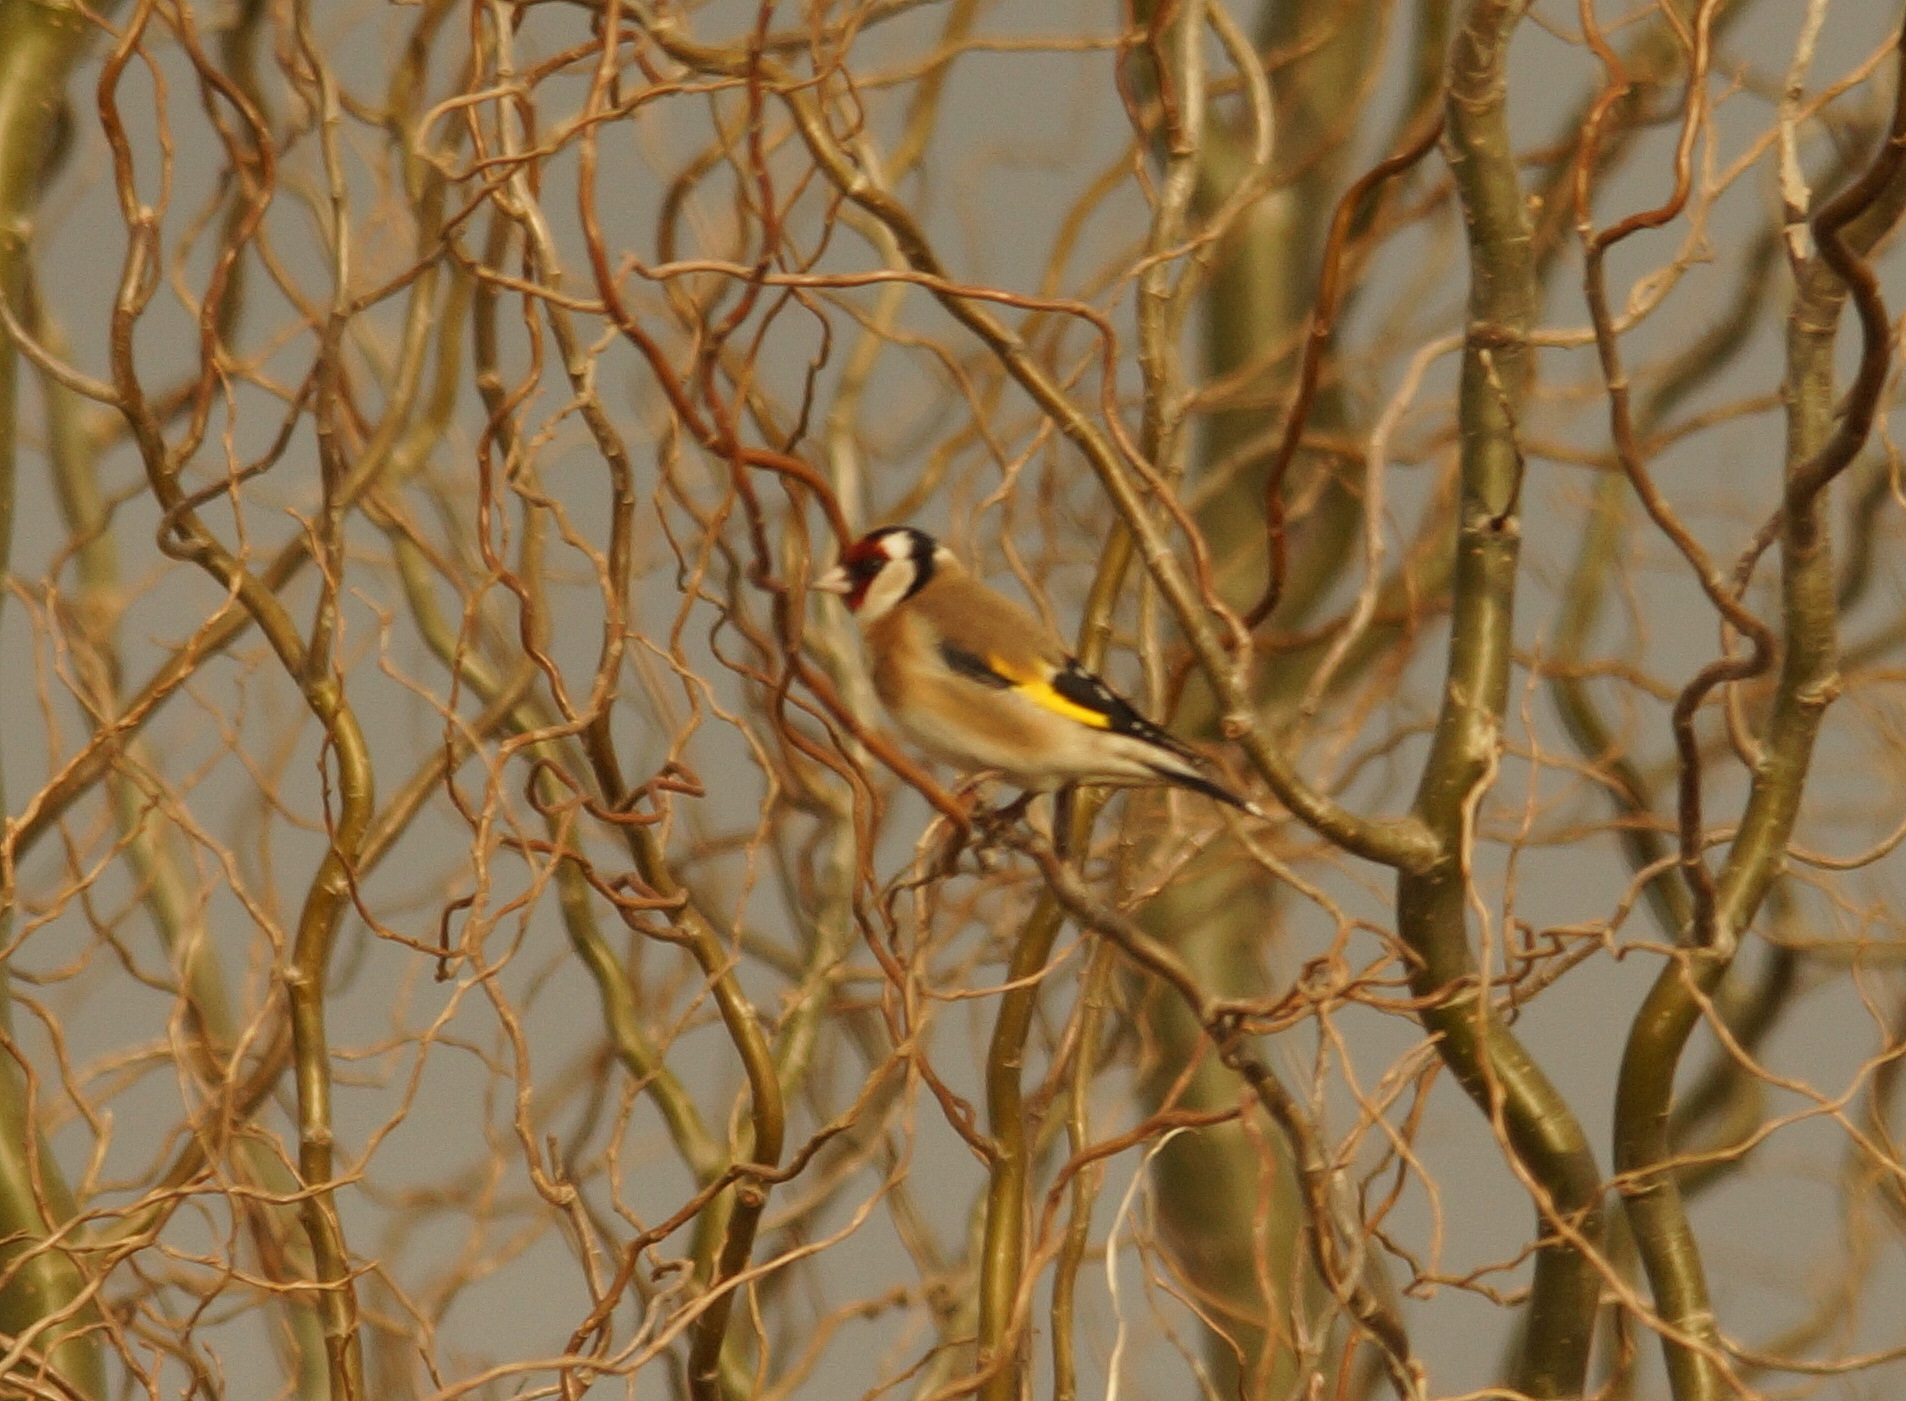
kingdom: Animalia
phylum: Chordata
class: Aves
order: Passeriformes
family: Fringillidae
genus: Carduelis
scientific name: Carduelis carduelis
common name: European goldfinch
